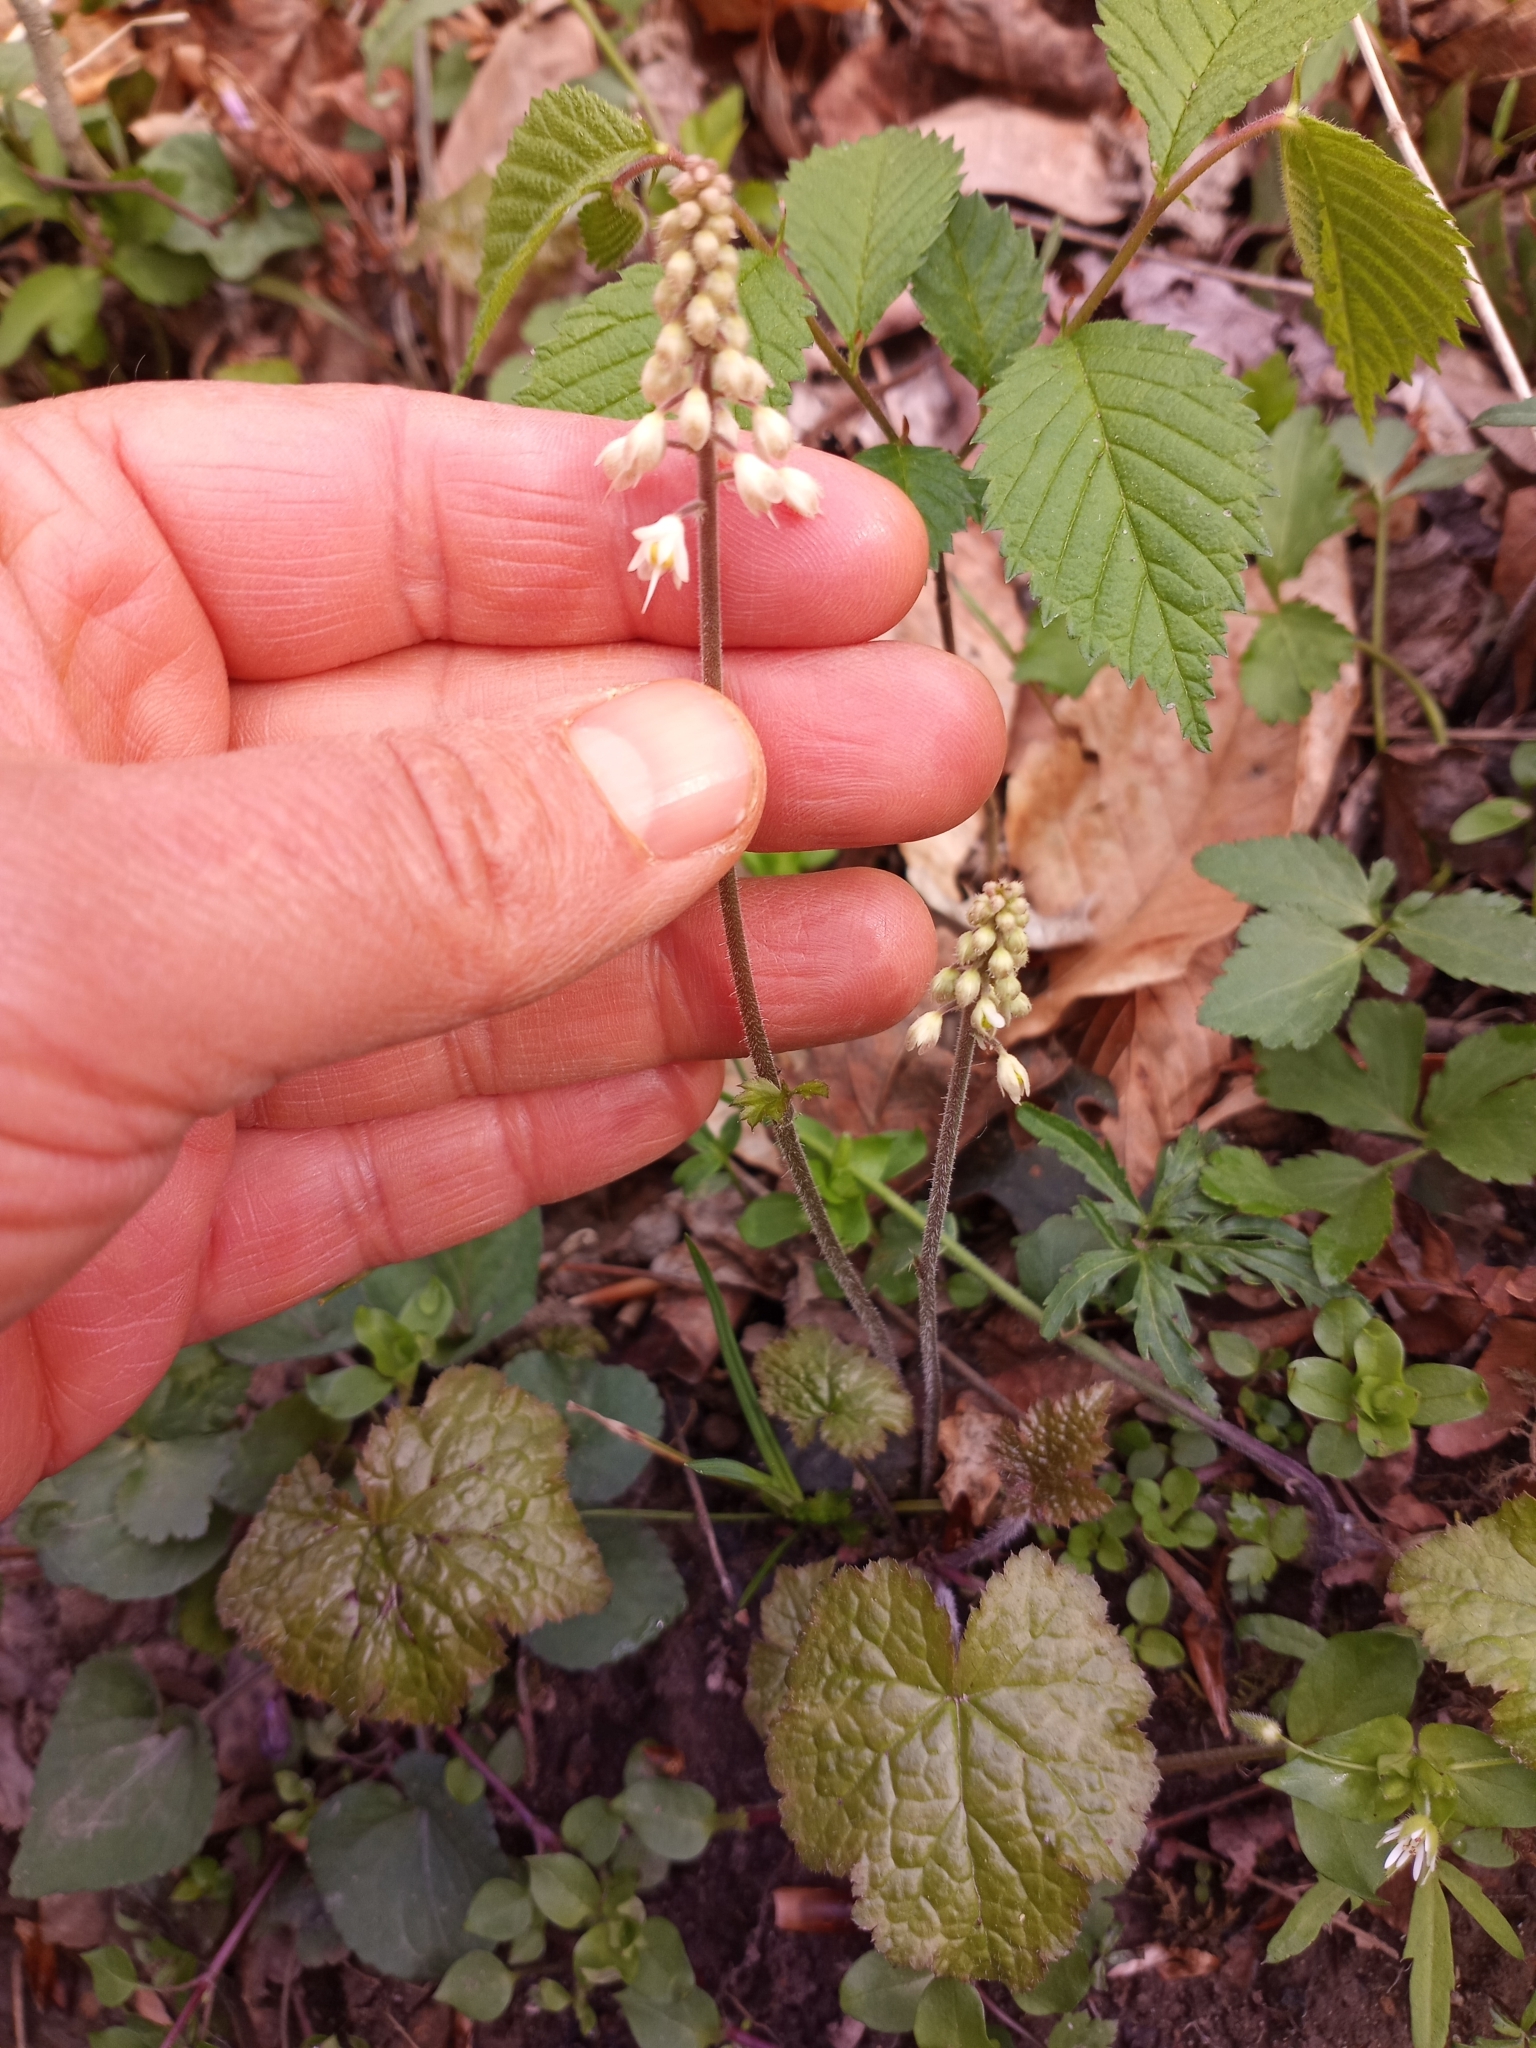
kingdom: Plantae
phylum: Tracheophyta
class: Magnoliopsida
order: Saxifragales
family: Saxifragaceae
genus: Tiarella
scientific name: Tiarella stolonifera
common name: Stoloniferous foamflower
